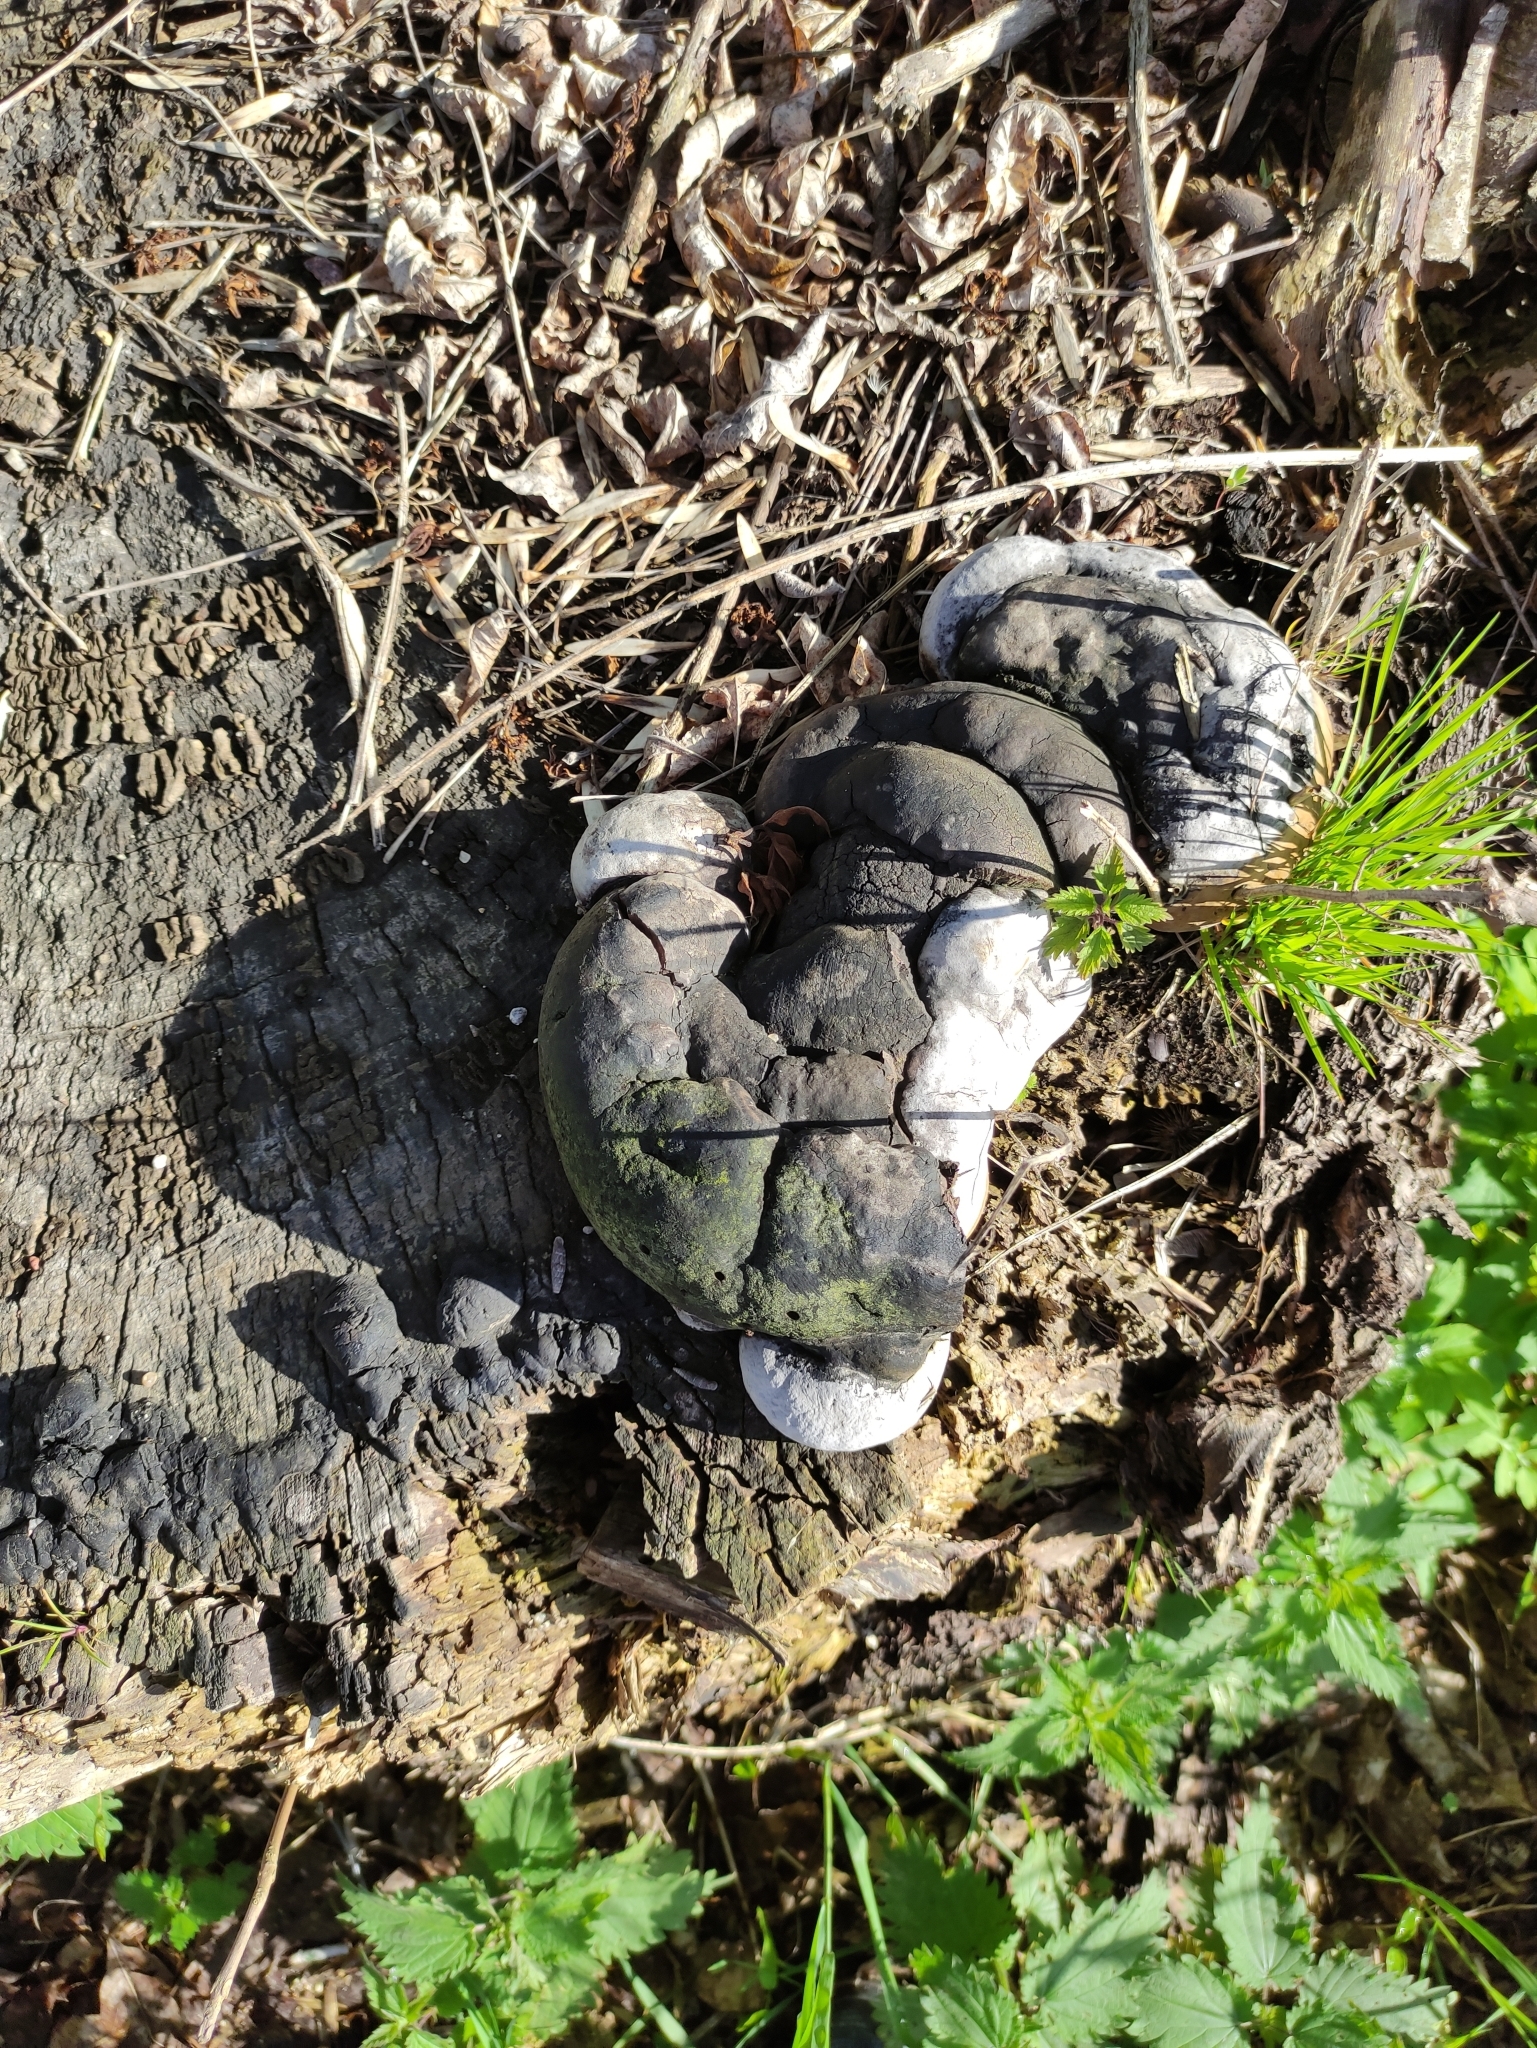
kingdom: Fungi
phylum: Basidiomycota
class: Agaricomycetes
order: Hymenochaetales
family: Hymenochaetaceae
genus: Phellinus
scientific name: Phellinus igniarius
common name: Willow bracket
